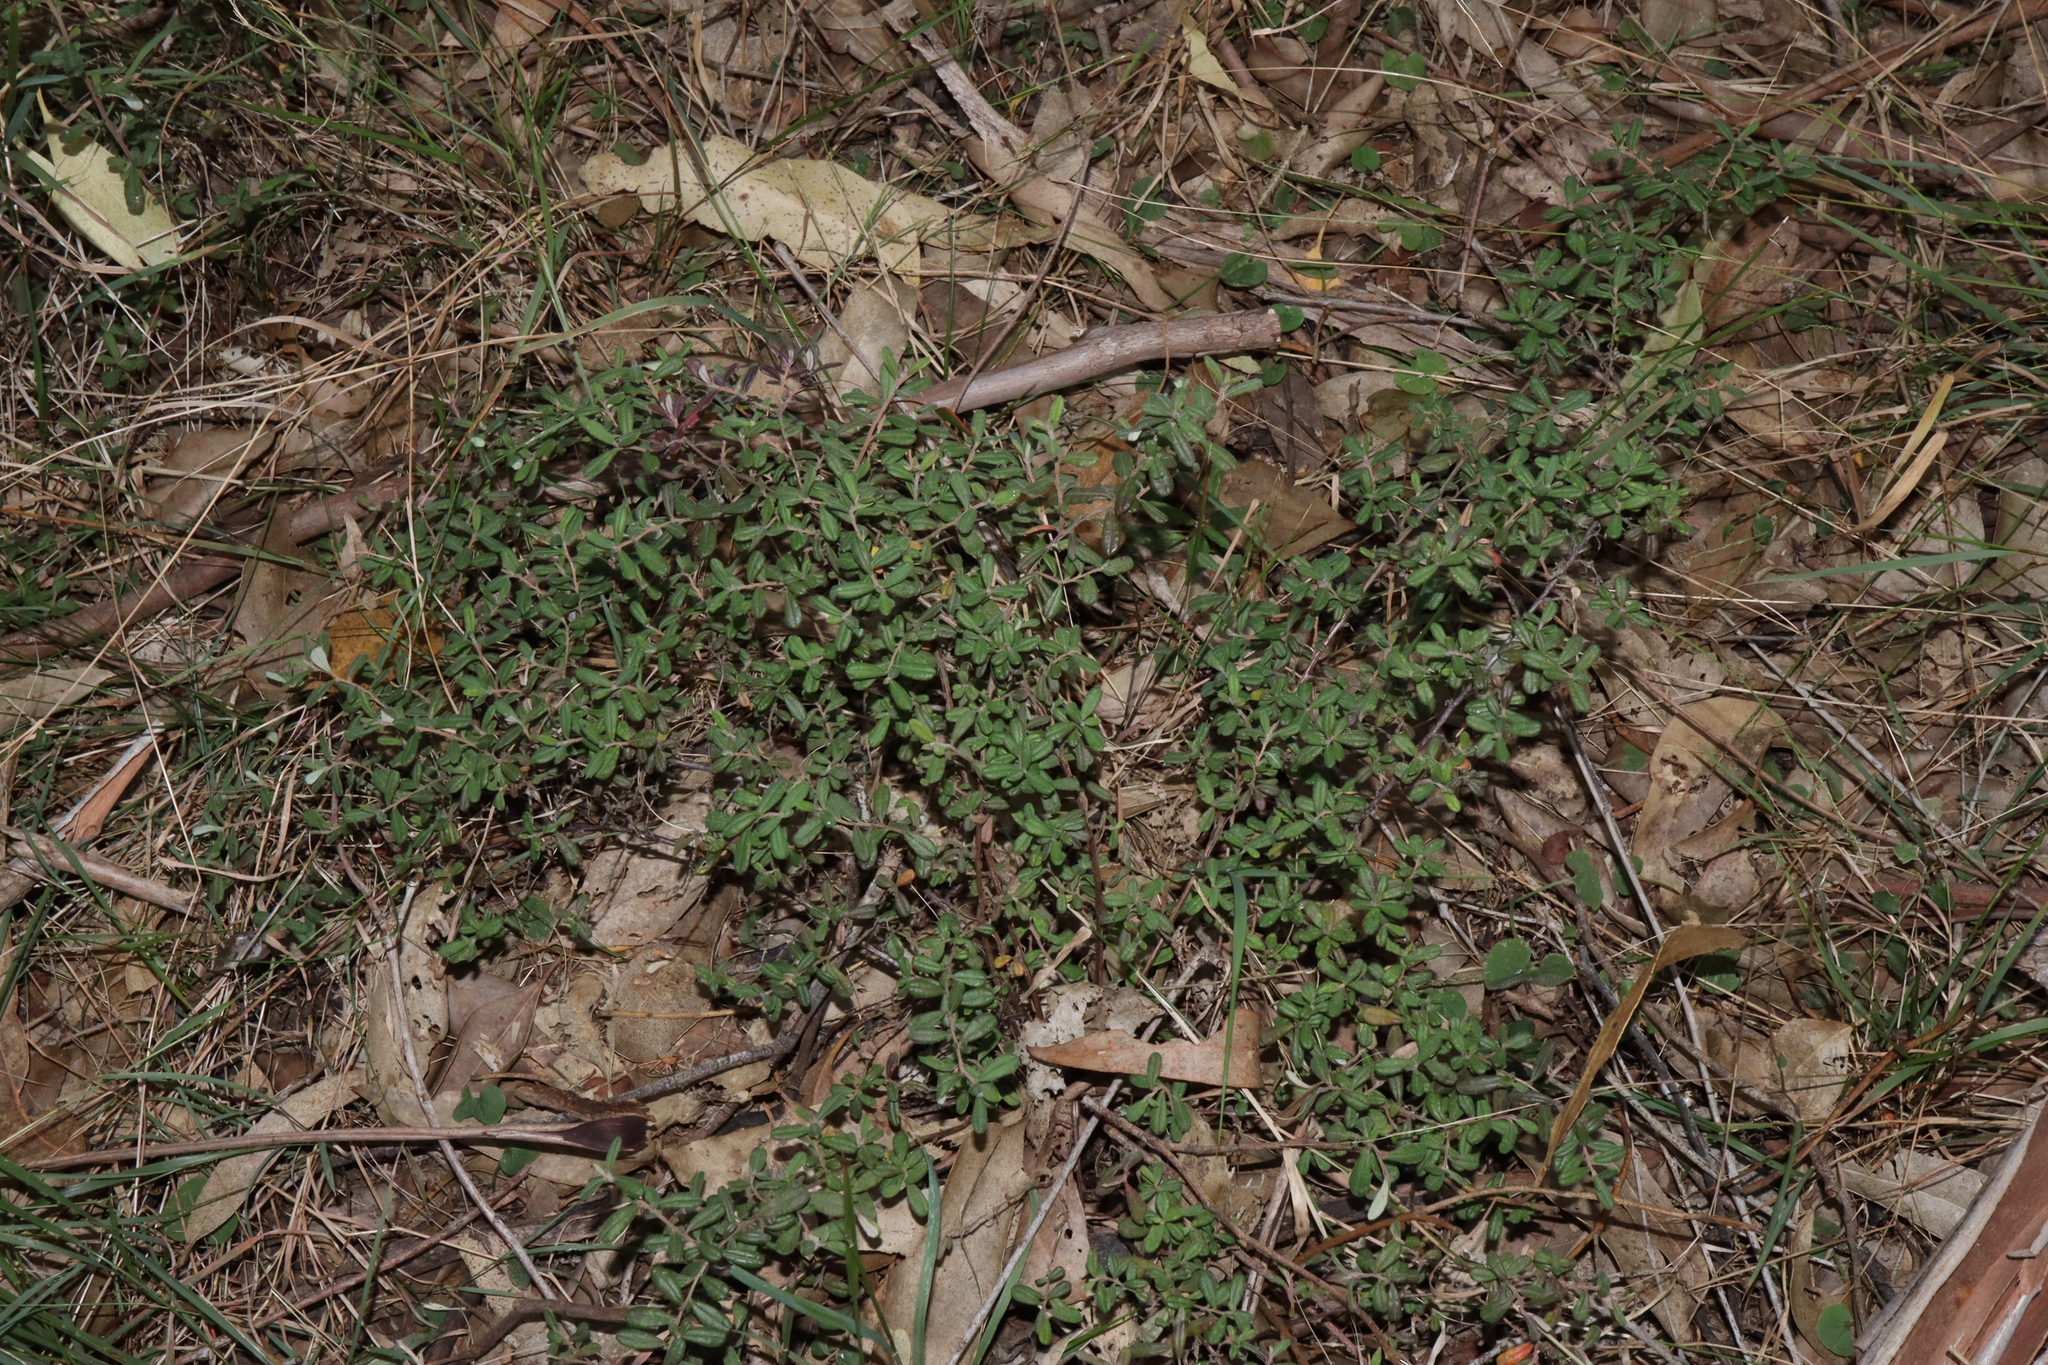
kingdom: Plantae
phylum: Tracheophyta
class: Magnoliopsida
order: Dilleniales
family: Dilleniaceae
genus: Hibbertia
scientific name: Hibbertia aspera
